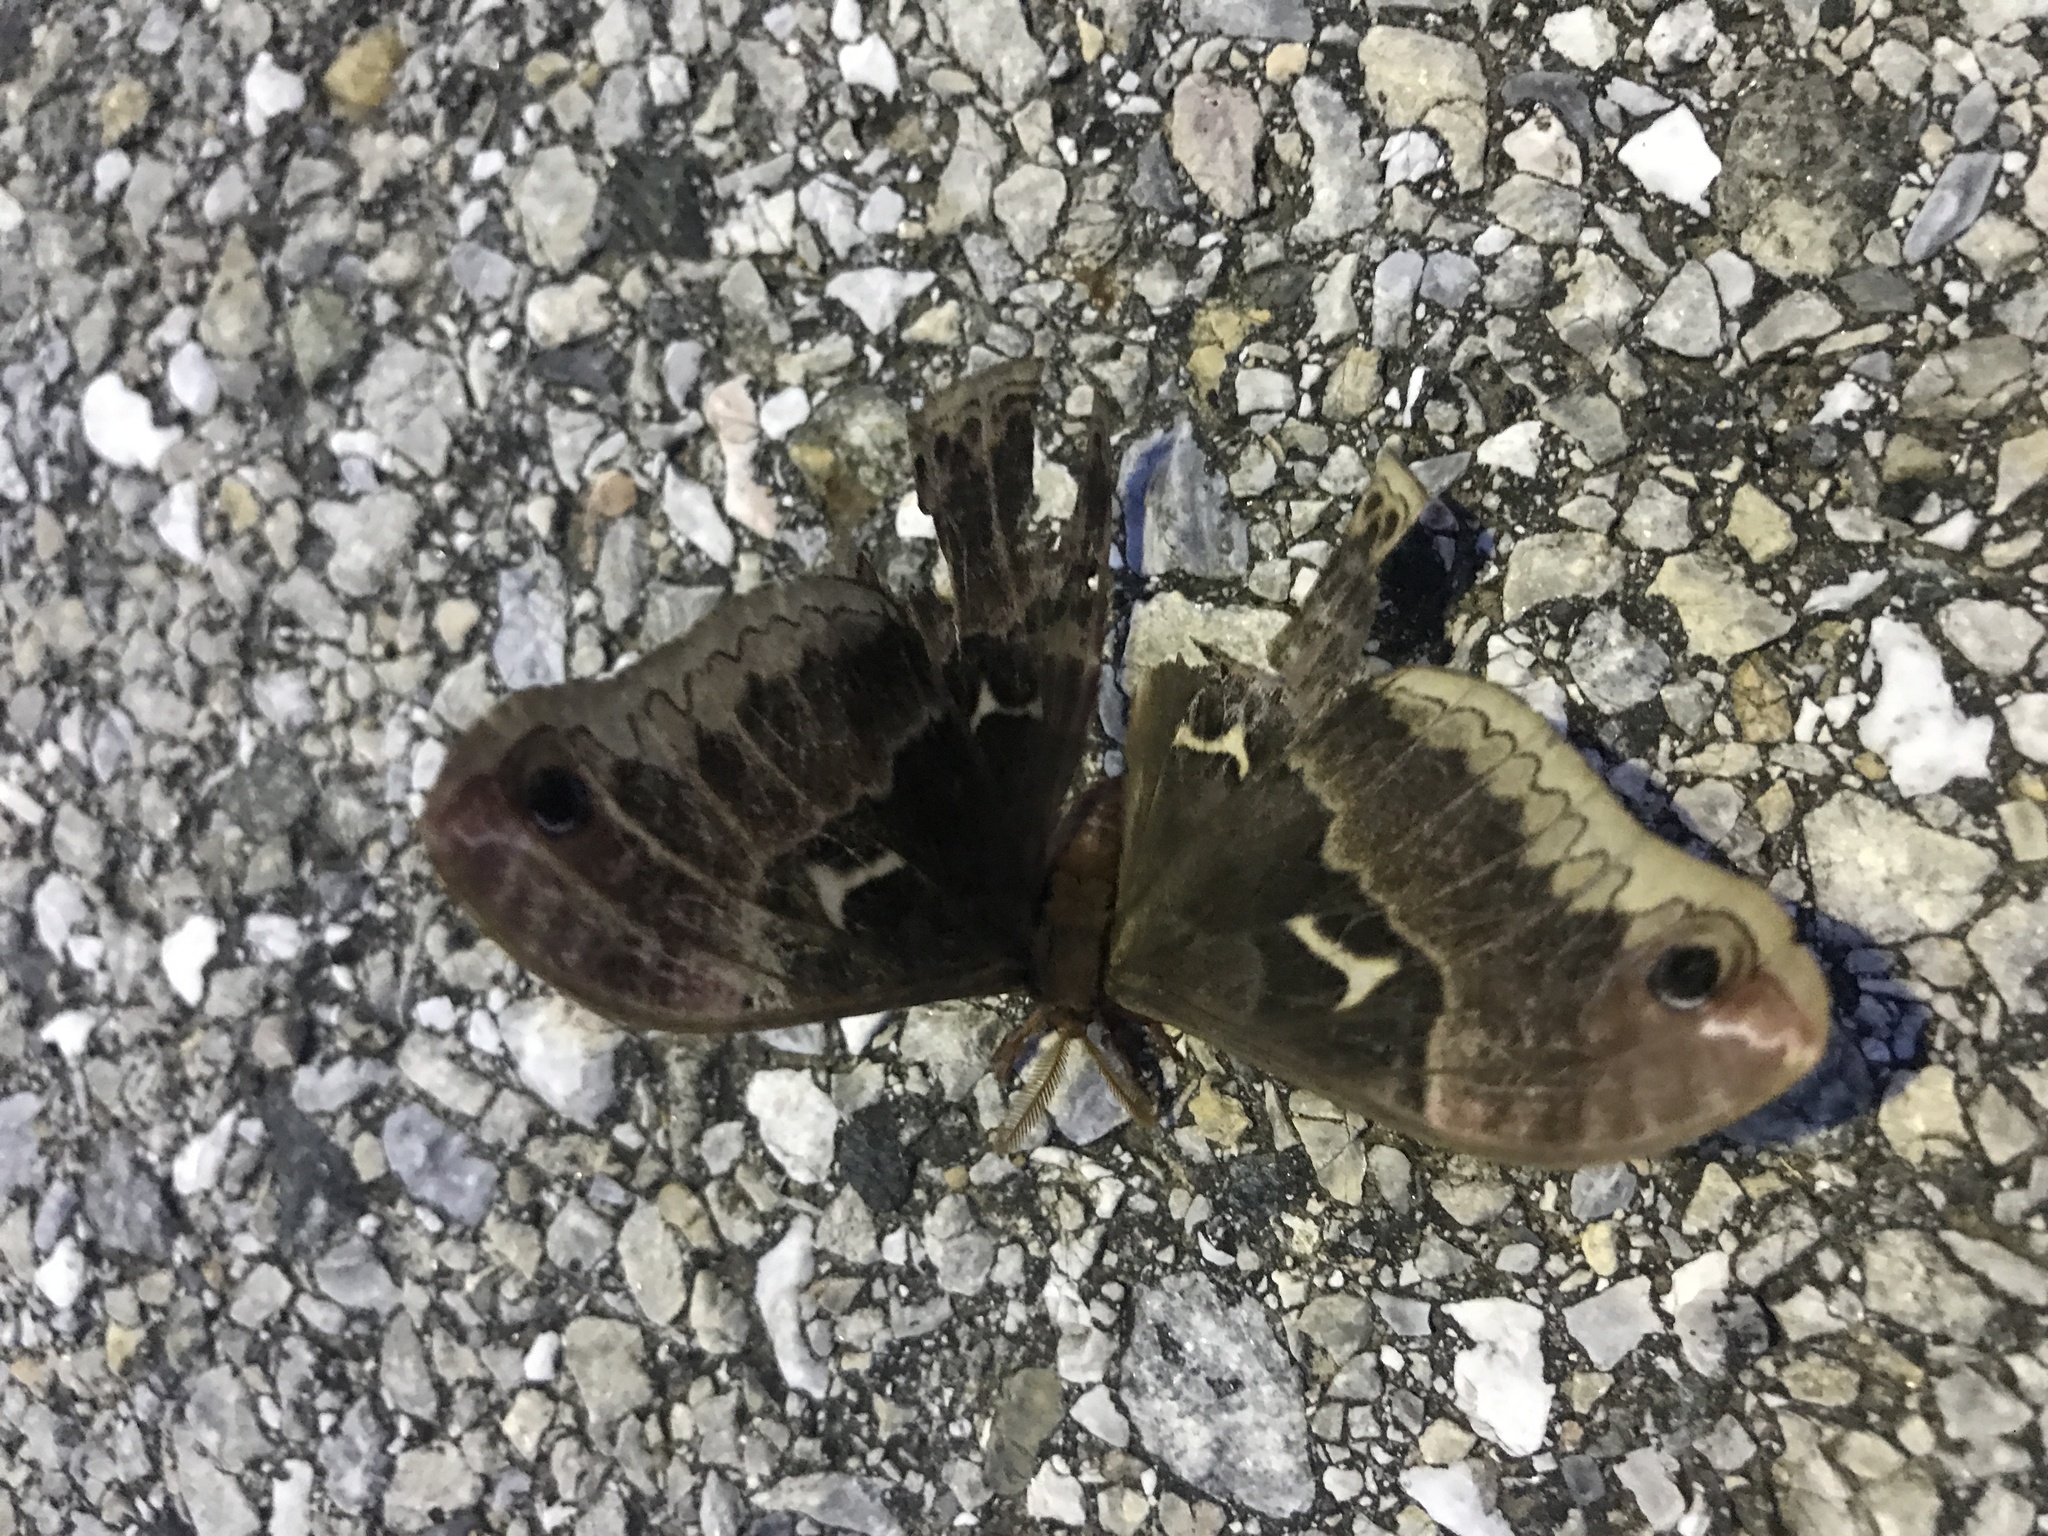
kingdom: Animalia
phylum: Arthropoda
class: Insecta
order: Lepidoptera
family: Saturniidae
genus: Callosamia
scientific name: Callosamia angulifera
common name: Tulip tree silkmoth
